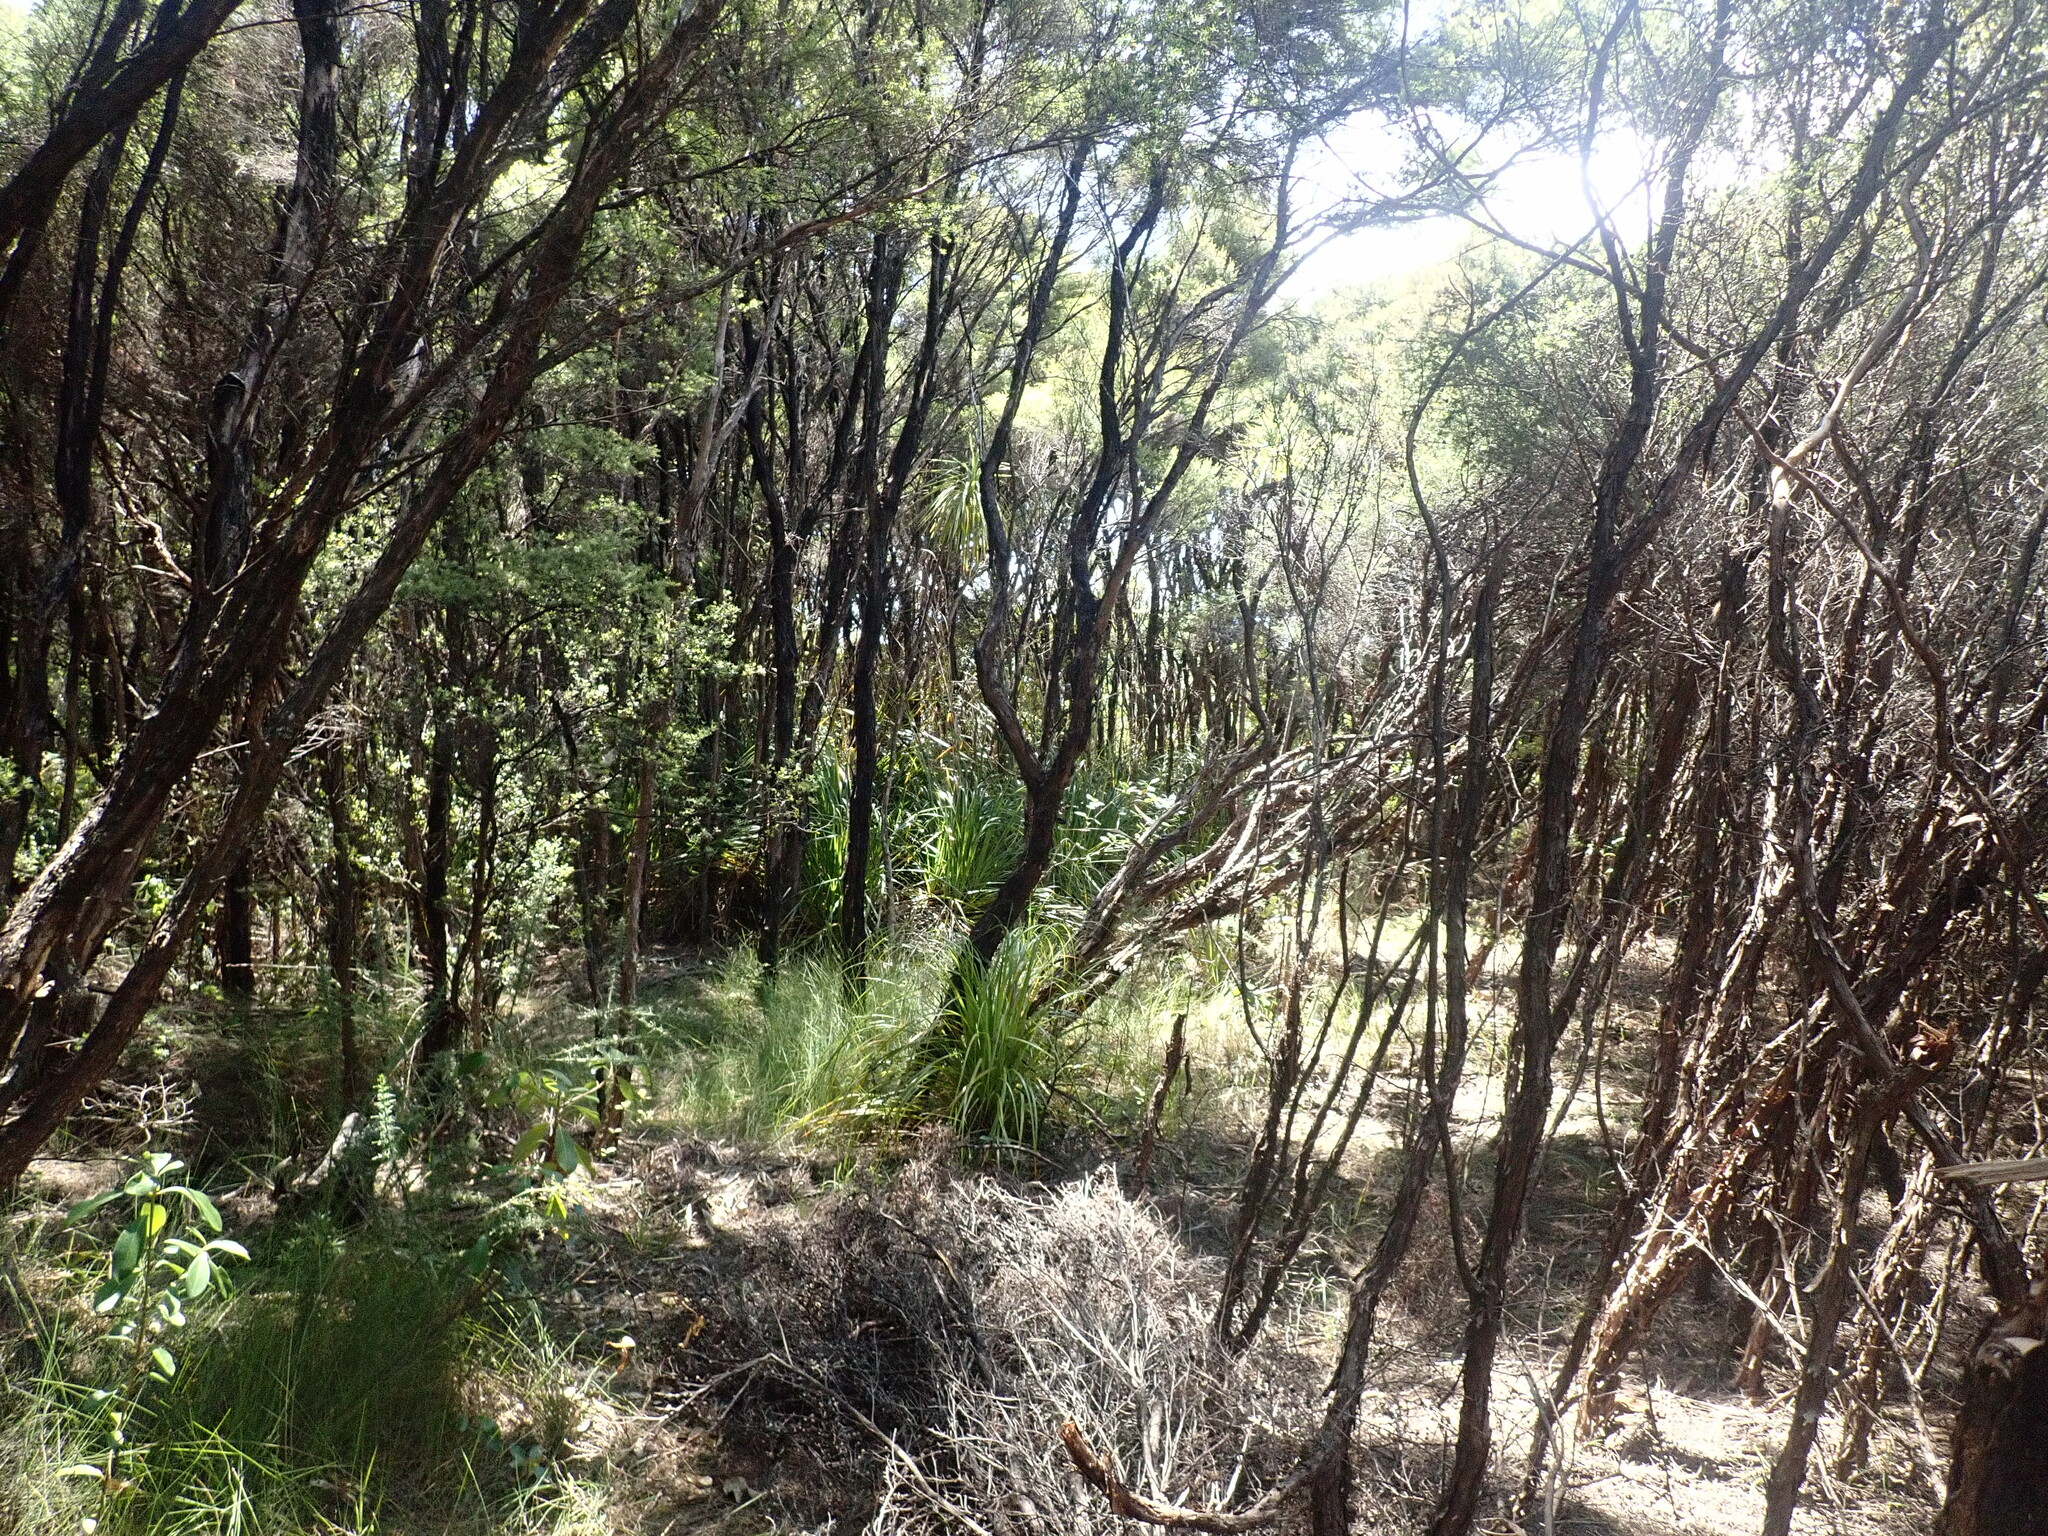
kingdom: Plantae
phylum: Tracheophyta
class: Magnoliopsida
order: Myrtales
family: Myrtaceae
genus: Leptospermum
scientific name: Leptospermum scoparium
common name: Broom tea-tree
